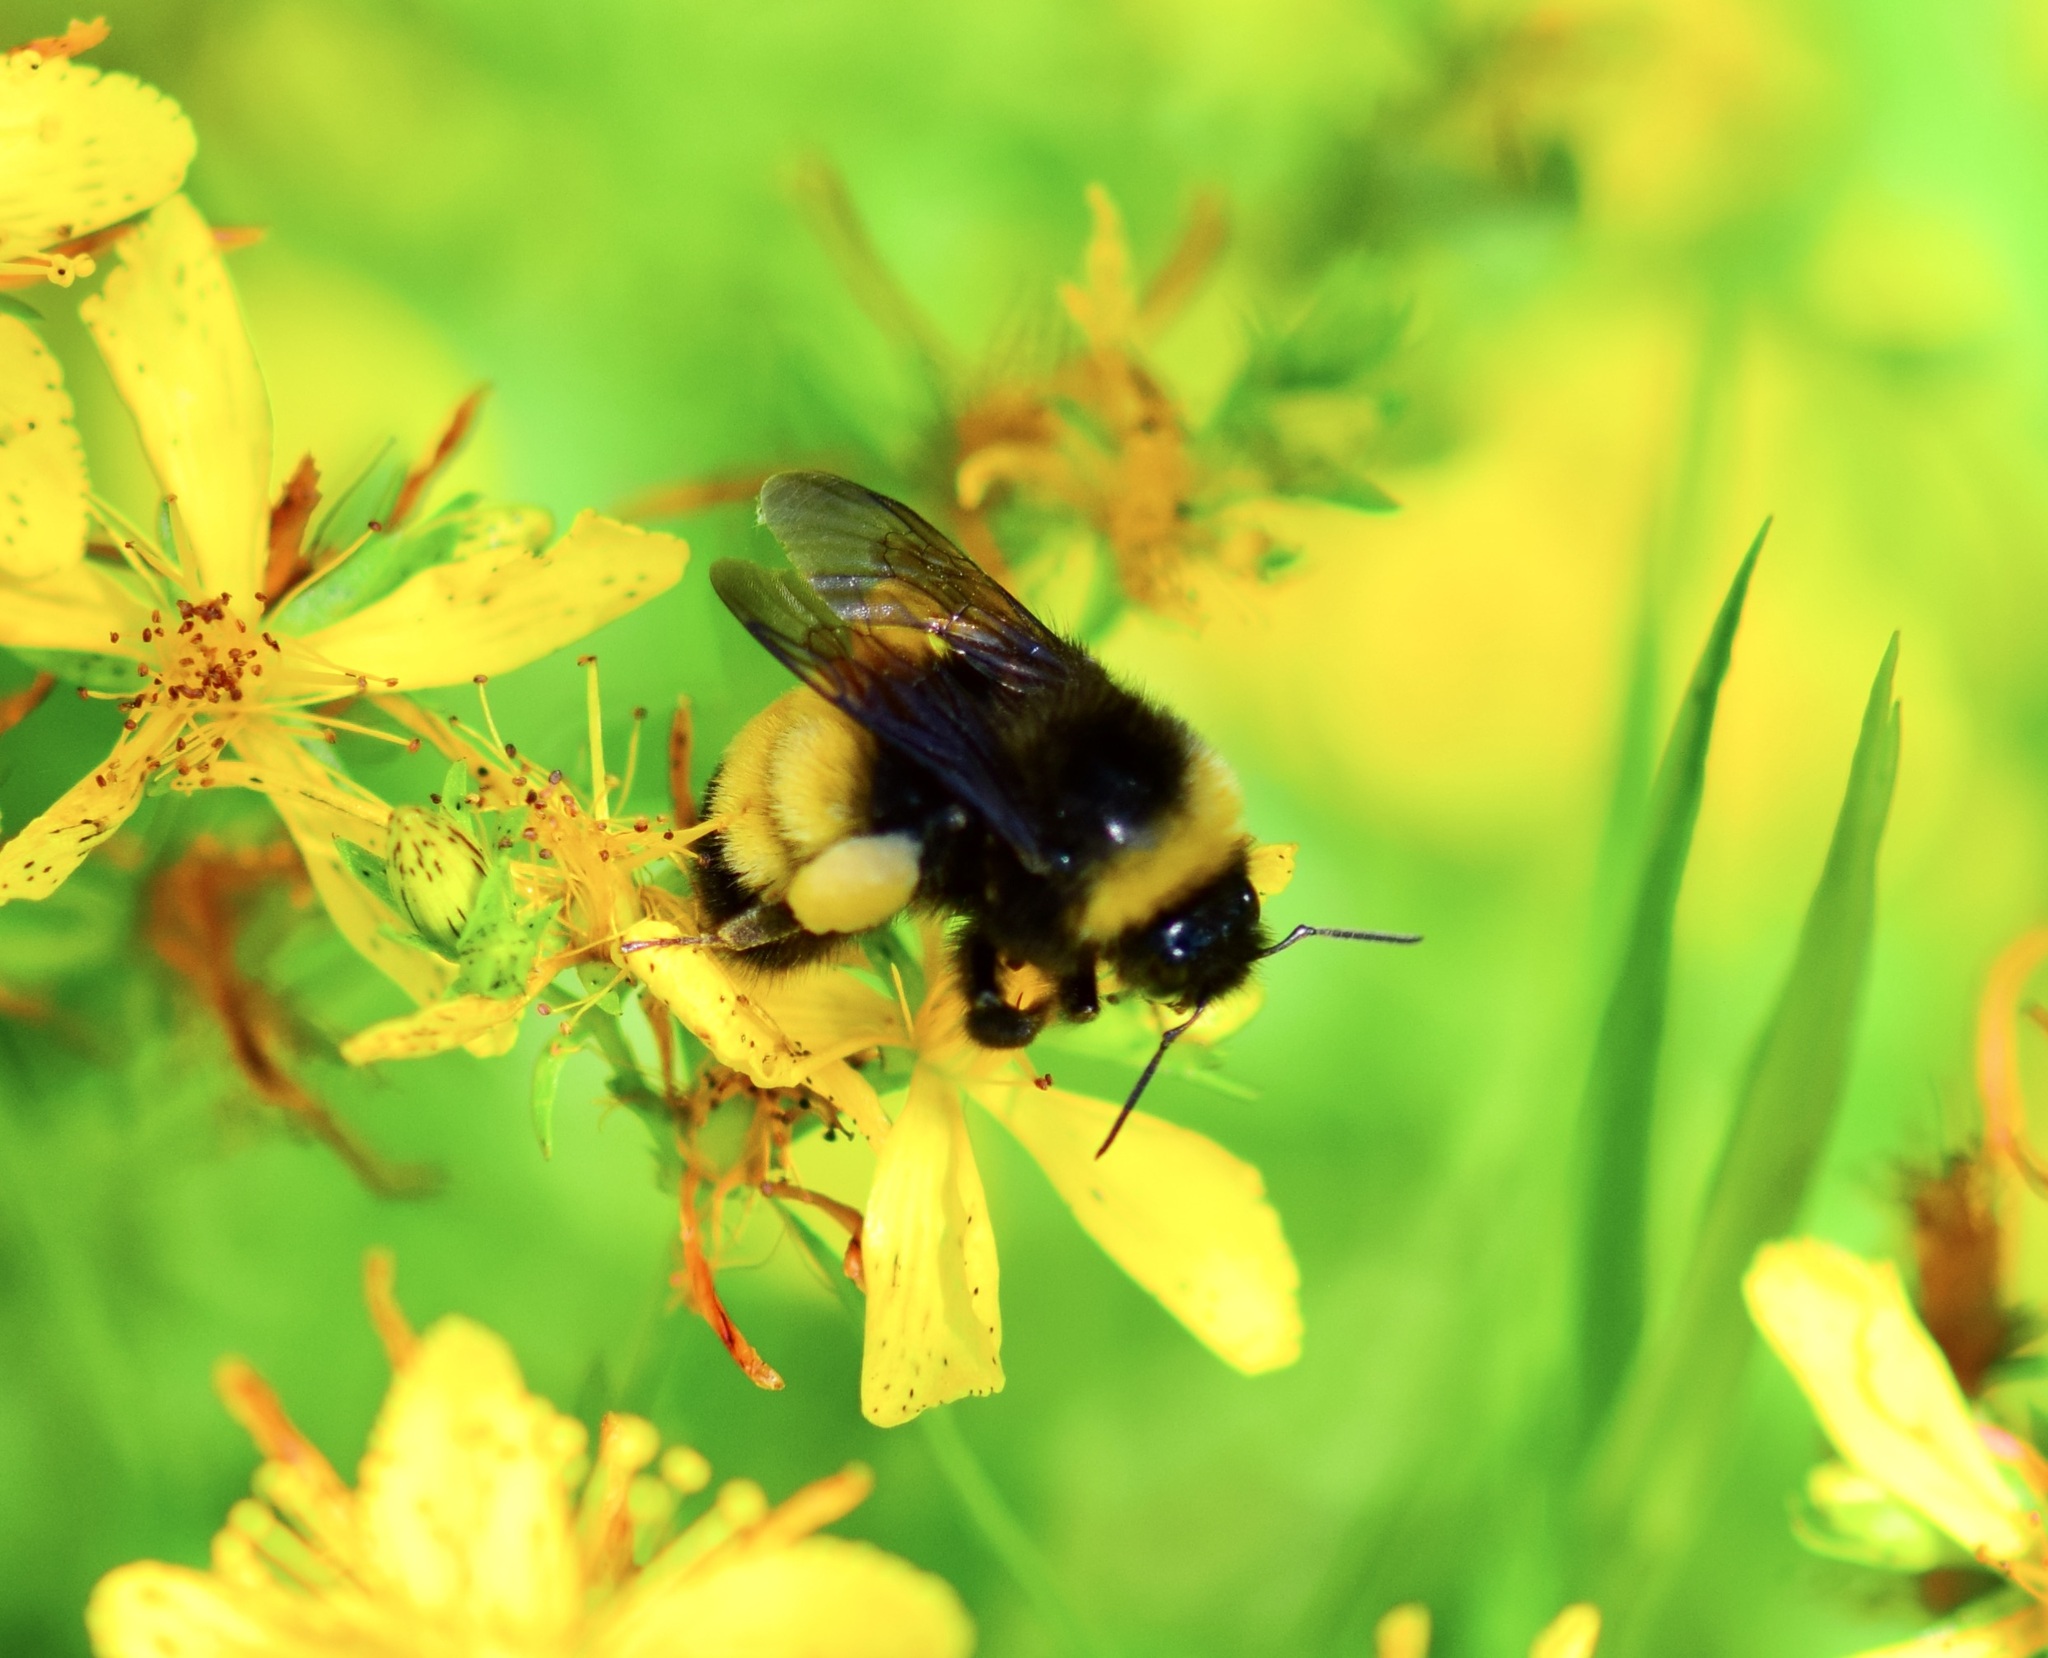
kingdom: Animalia
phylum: Arthropoda
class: Insecta
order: Hymenoptera
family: Apidae
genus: Bombus
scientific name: Bombus terricola
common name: Yellow-banded bumble bee
